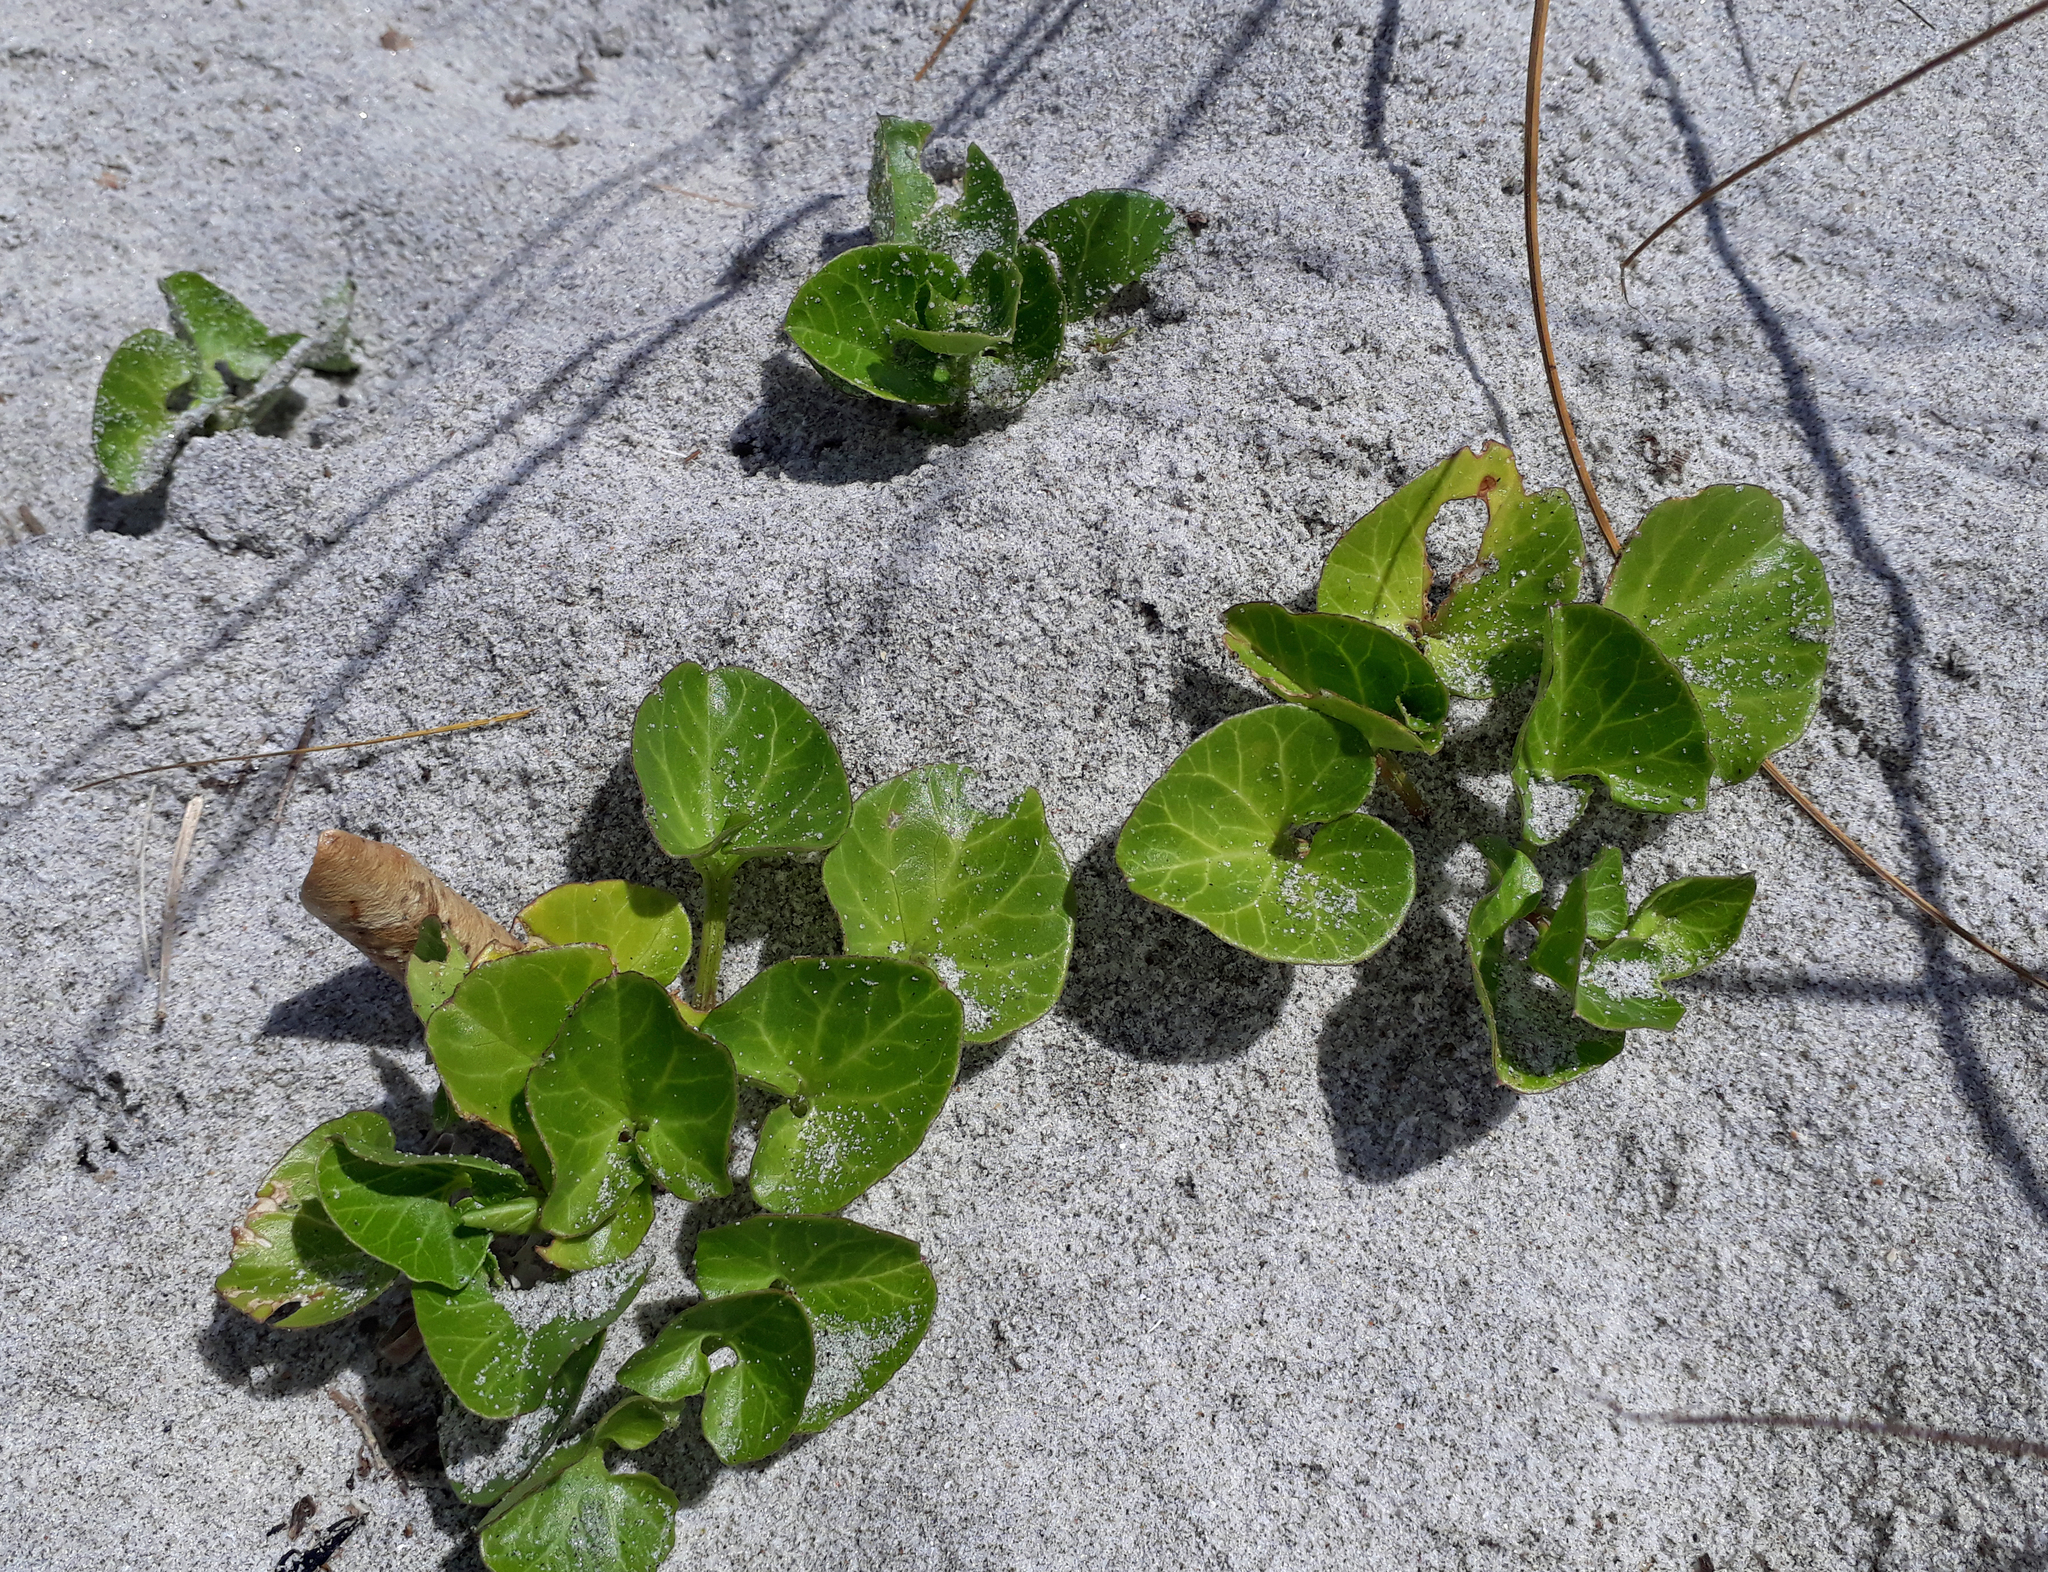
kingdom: Plantae
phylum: Tracheophyta
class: Magnoliopsida
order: Solanales
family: Convolvulaceae
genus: Calystegia
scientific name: Calystegia soldanella
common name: Sea bindweed
